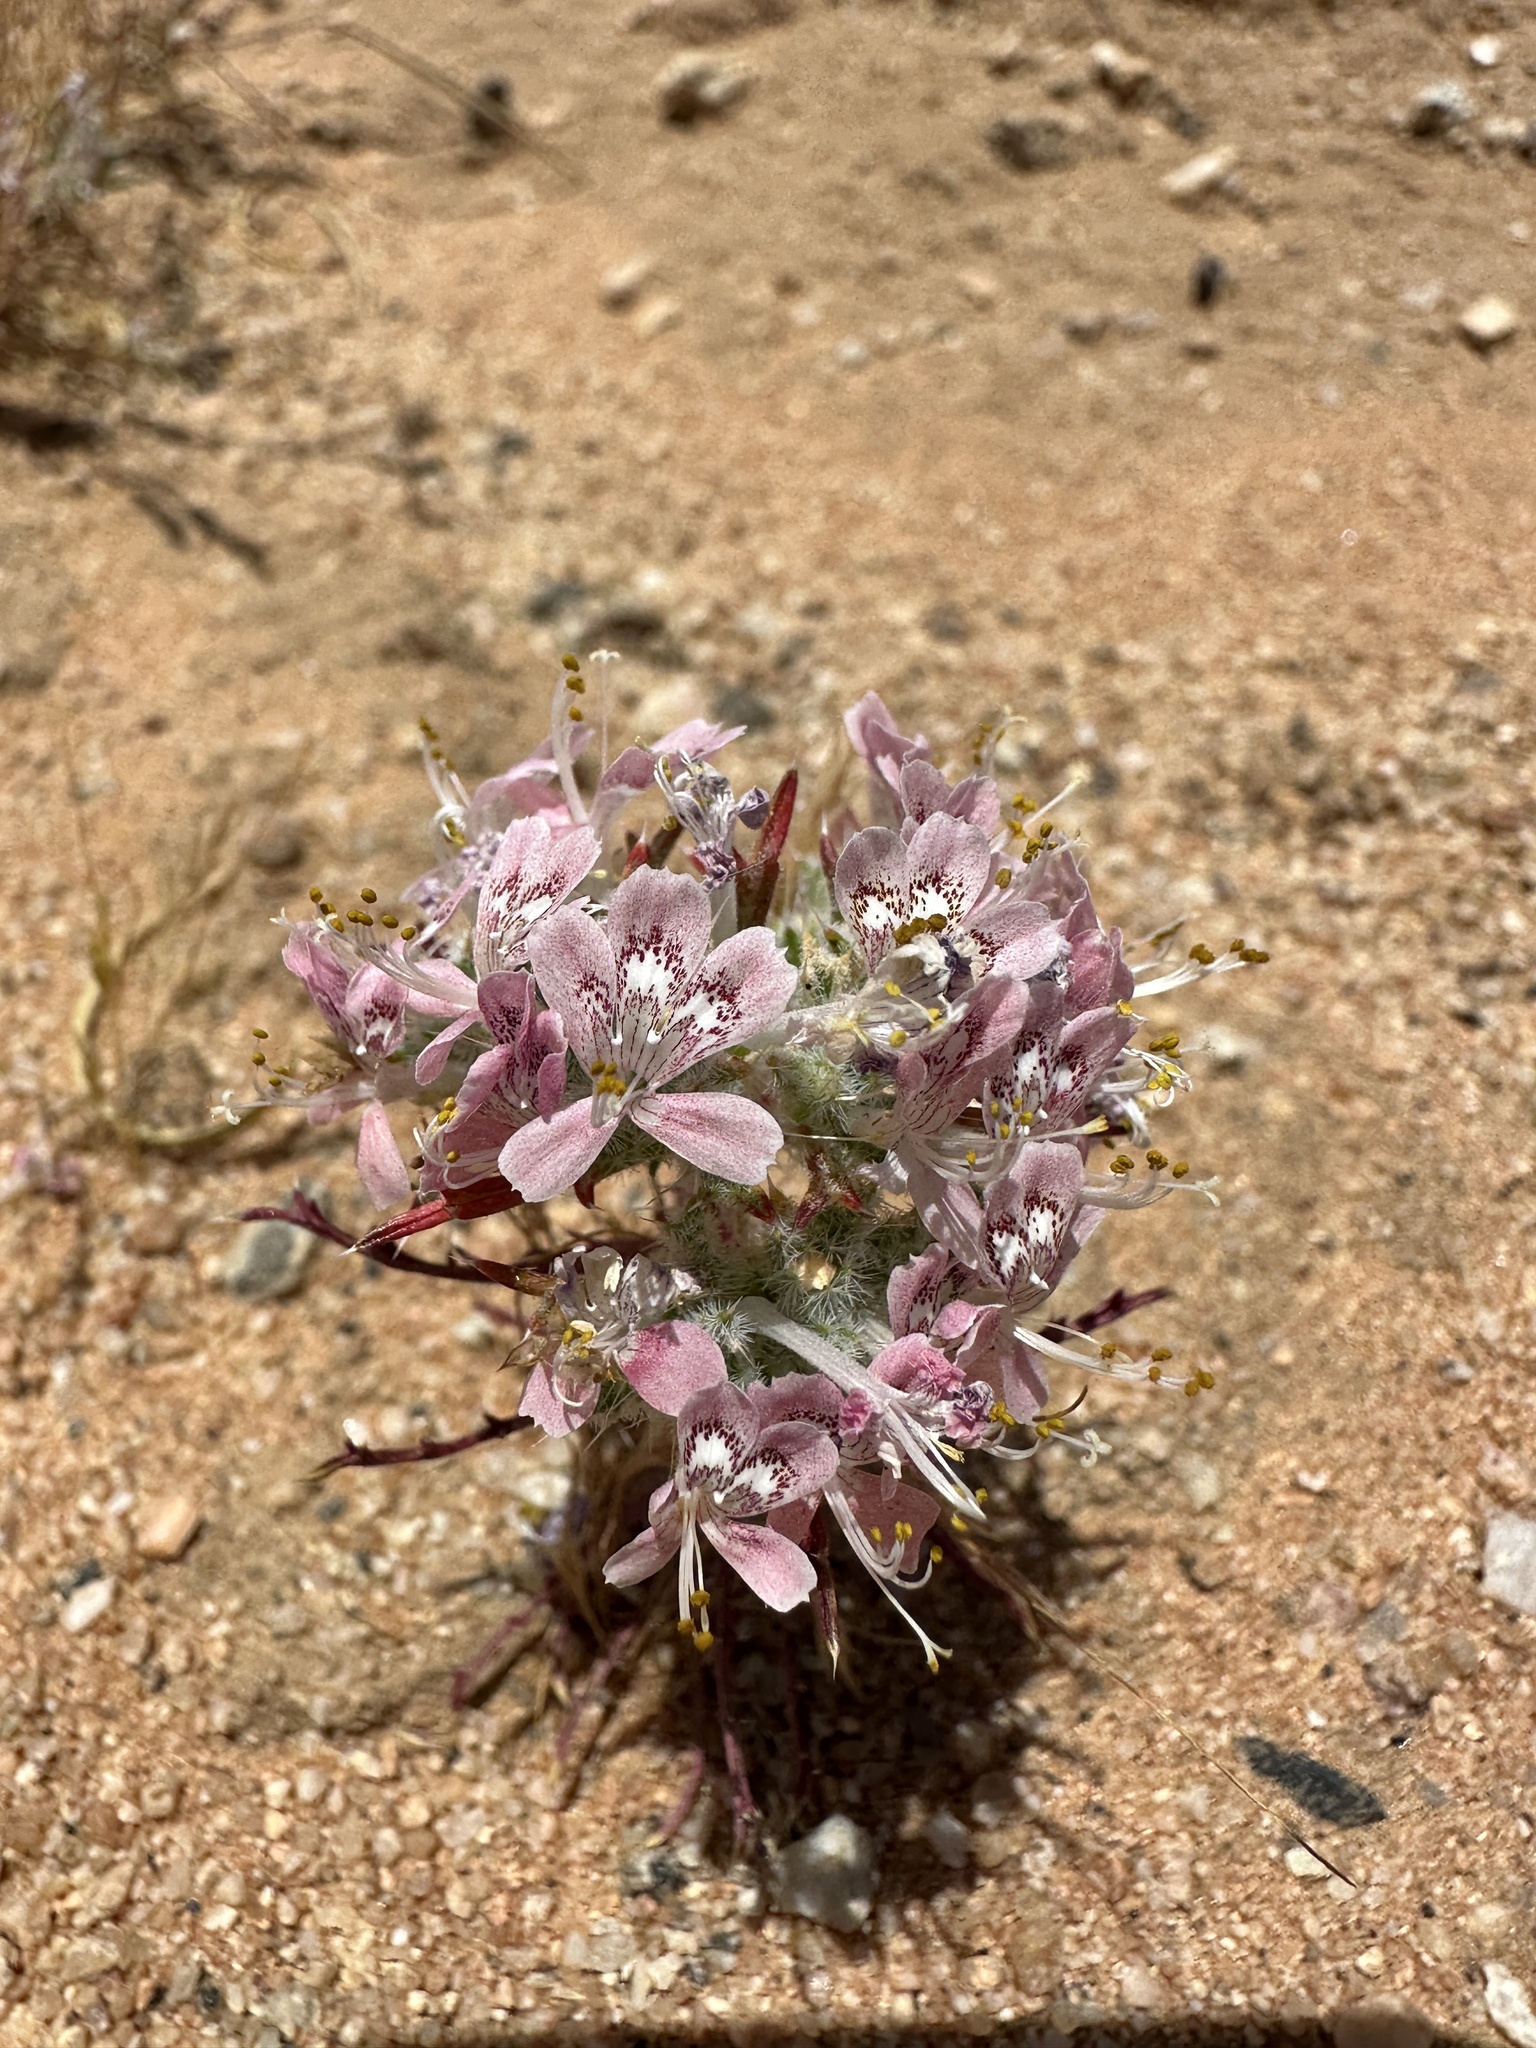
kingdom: Plantae
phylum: Tracheophyta
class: Magnoliopsida
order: Ericales
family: Polemoniaceae
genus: Loeseliastrum
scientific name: Loeseliastrum matthewsii
